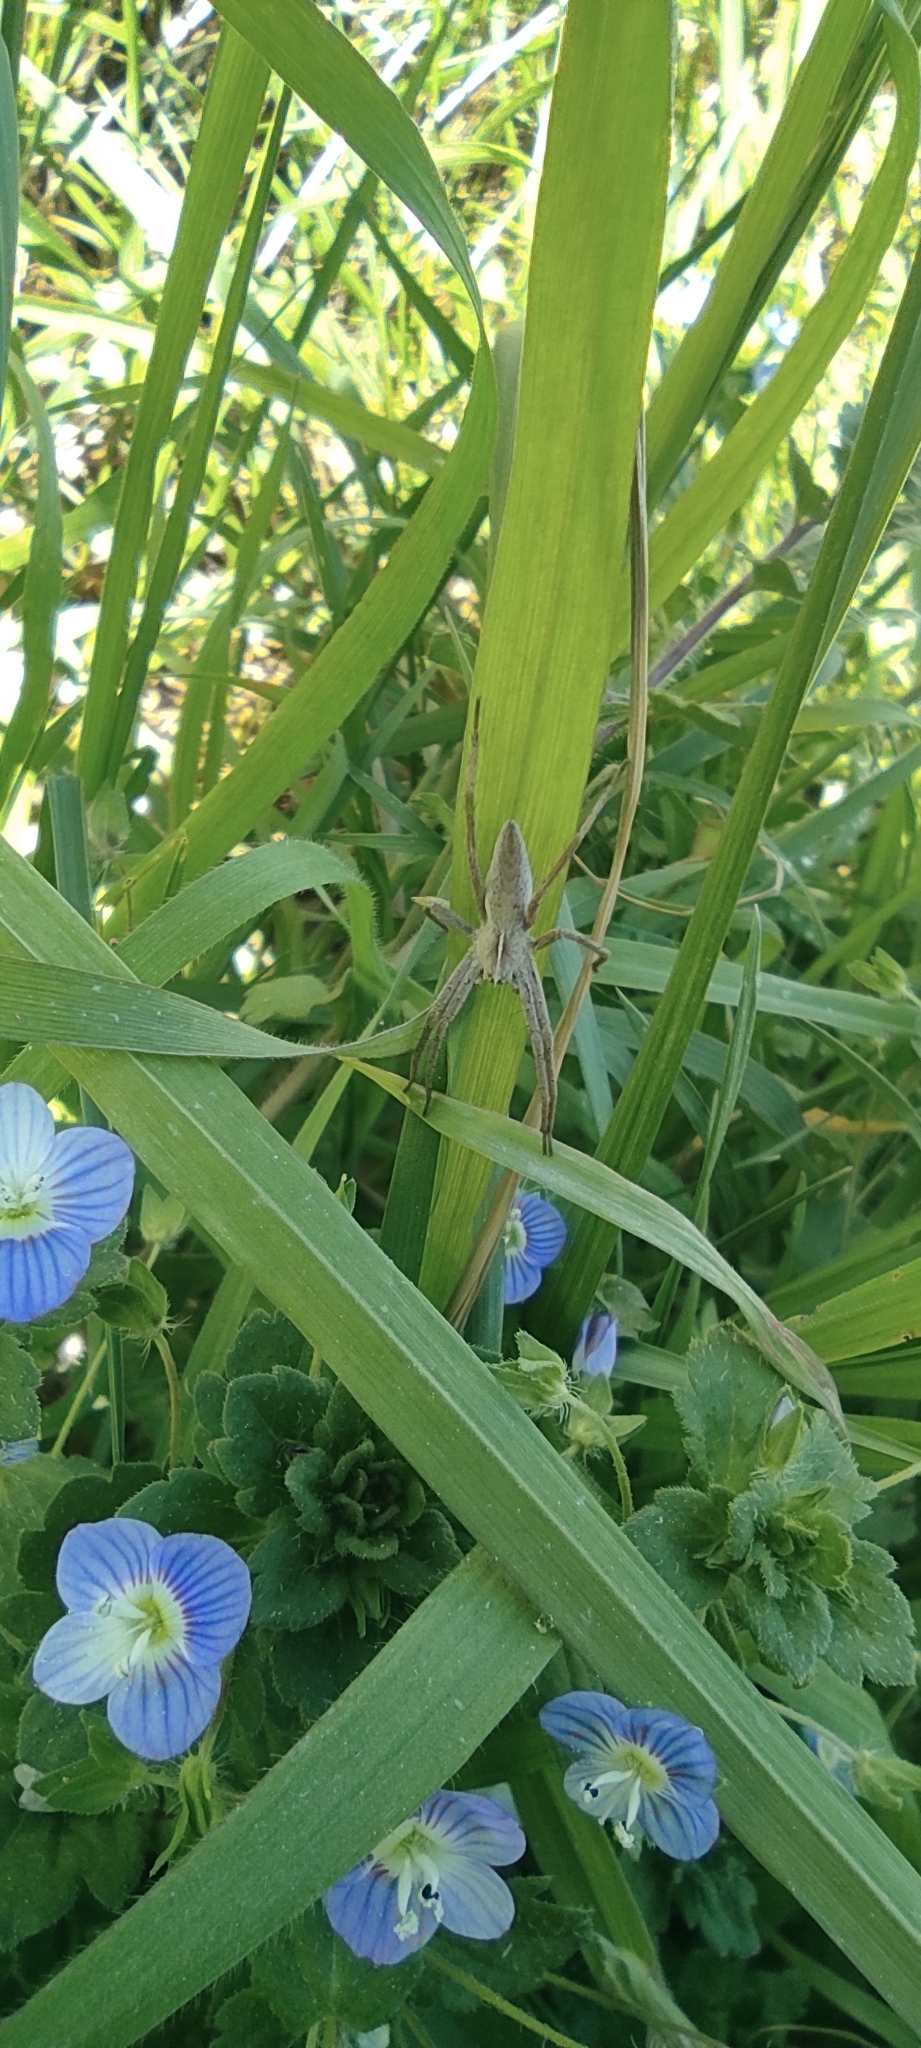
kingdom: Animalia
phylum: Arthropoda
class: Arachnida
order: Araneae
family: Pisauridae
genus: Pisaura
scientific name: Pisaura
